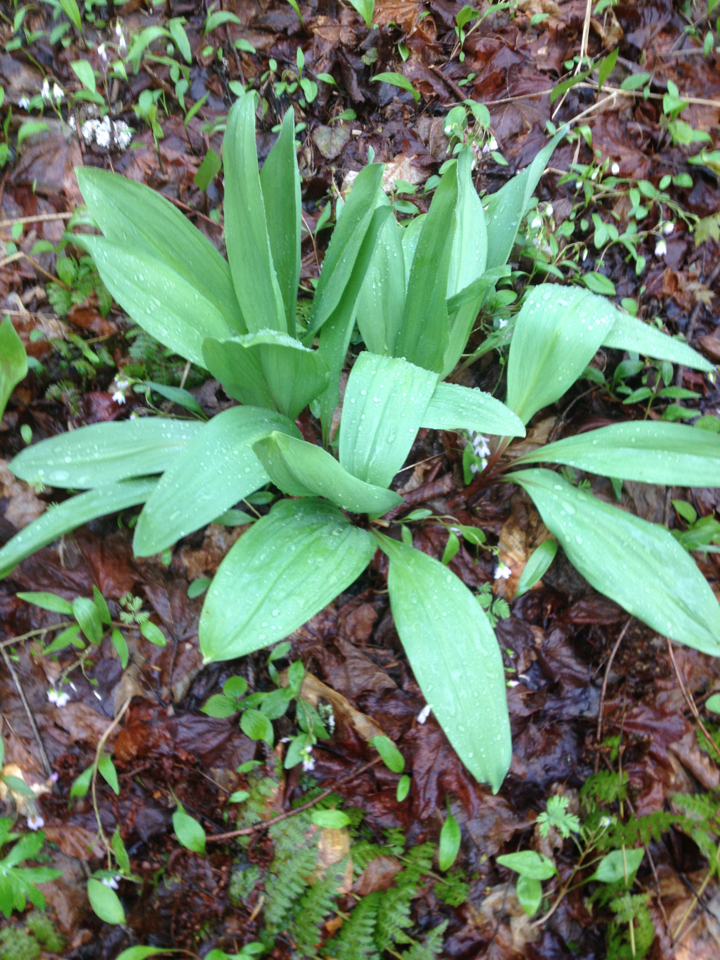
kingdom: Plantae
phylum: Tracheophyta
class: Liliopsida
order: Asparagales
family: Amaryllidaceae
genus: Allium
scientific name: Allium tricoccum
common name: Ramp
